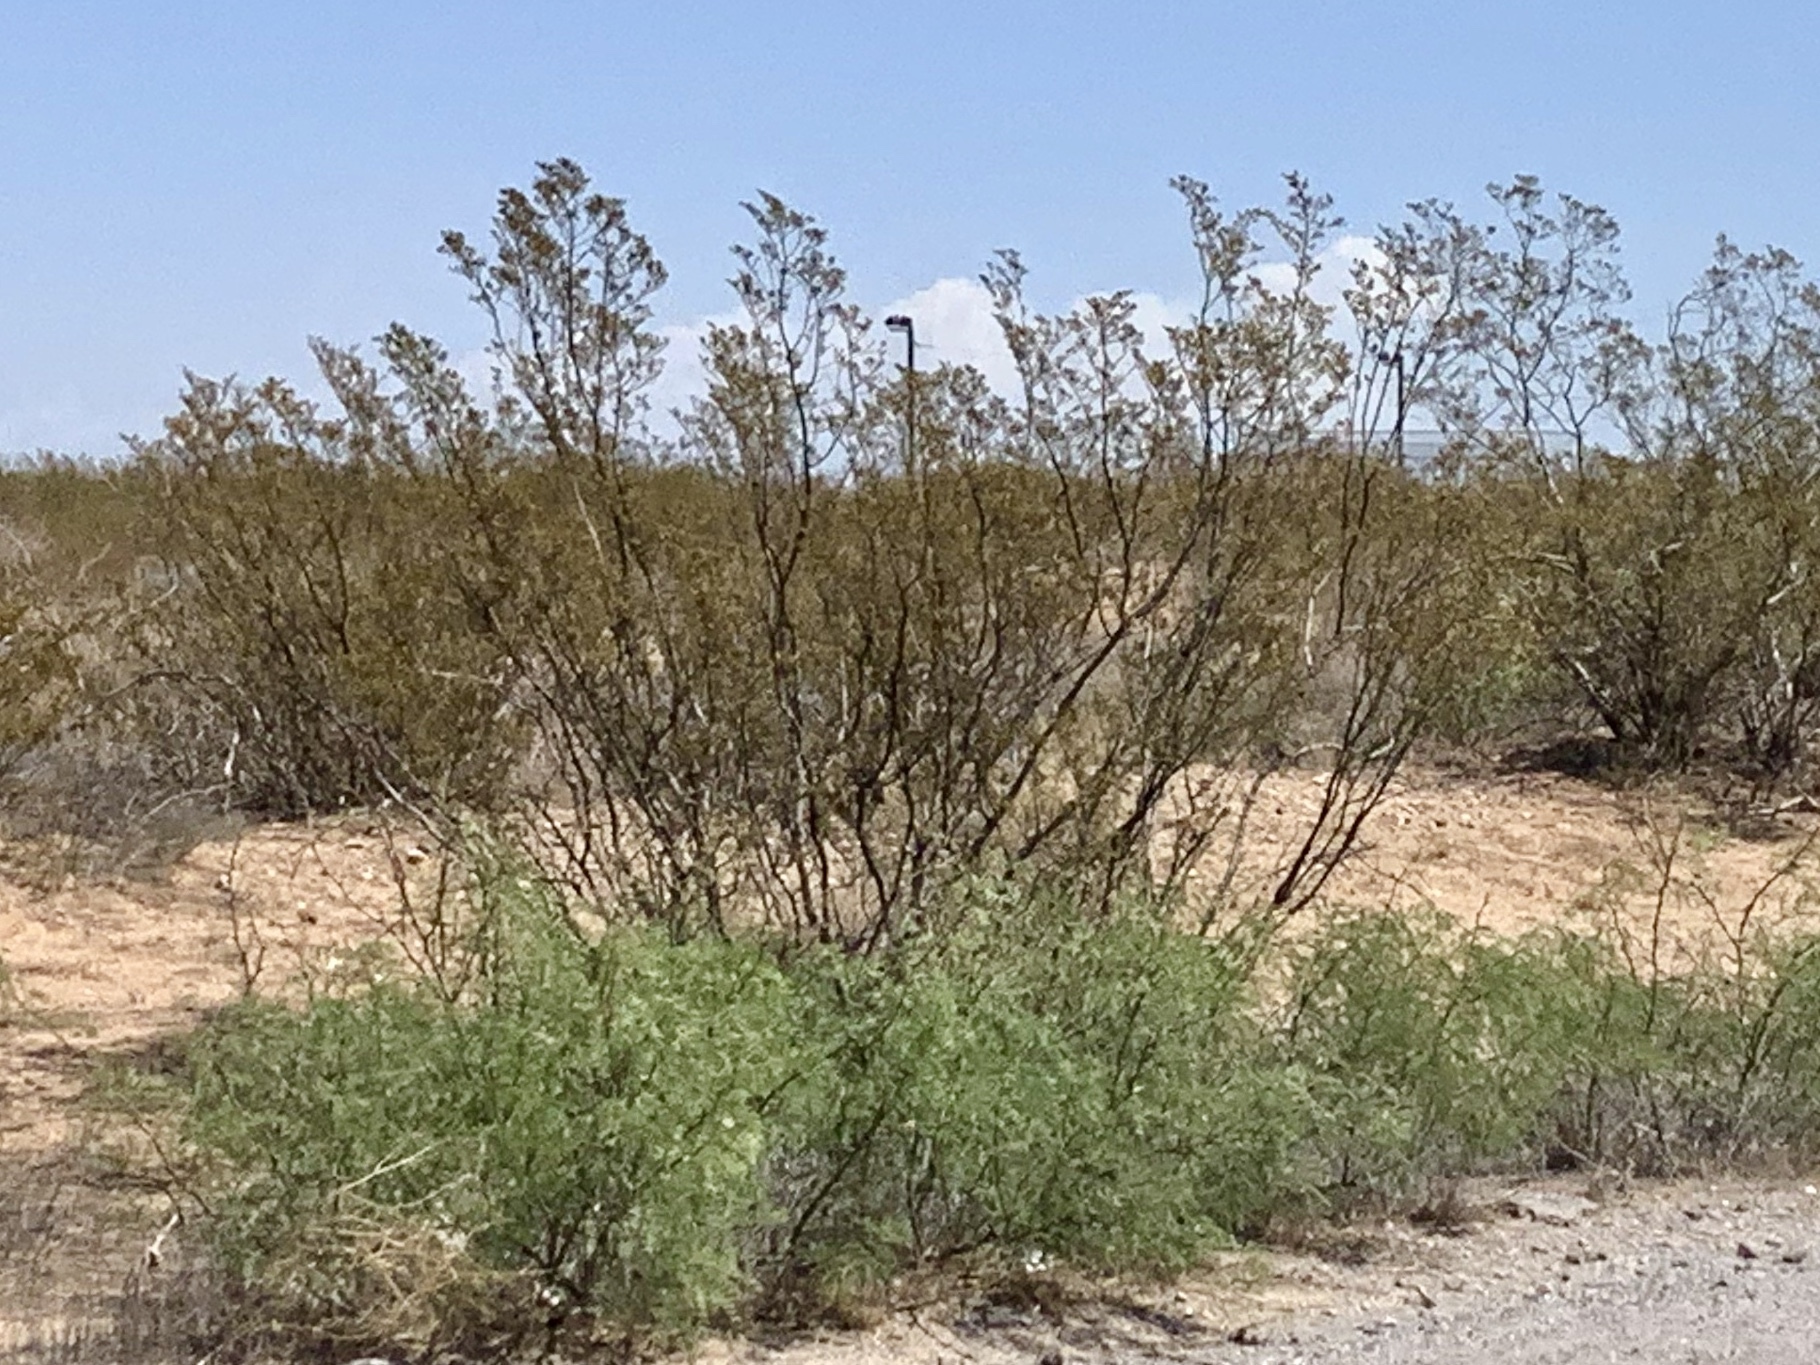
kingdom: Plantae
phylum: Tracheophyta
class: Magnoliopsida
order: Zygophyllales
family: Zygophyllaceae
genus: Larrea
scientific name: Larrea tridentata
